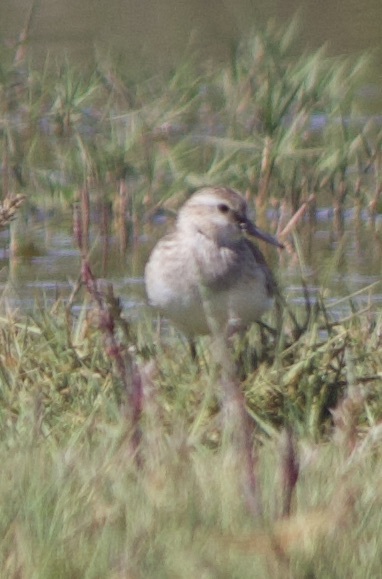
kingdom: Animalia
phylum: Chordata
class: Aves
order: Charadriiformes
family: Scolopacidae
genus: Calidris
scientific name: Calidris bairdii
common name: Baird's sandpiper
